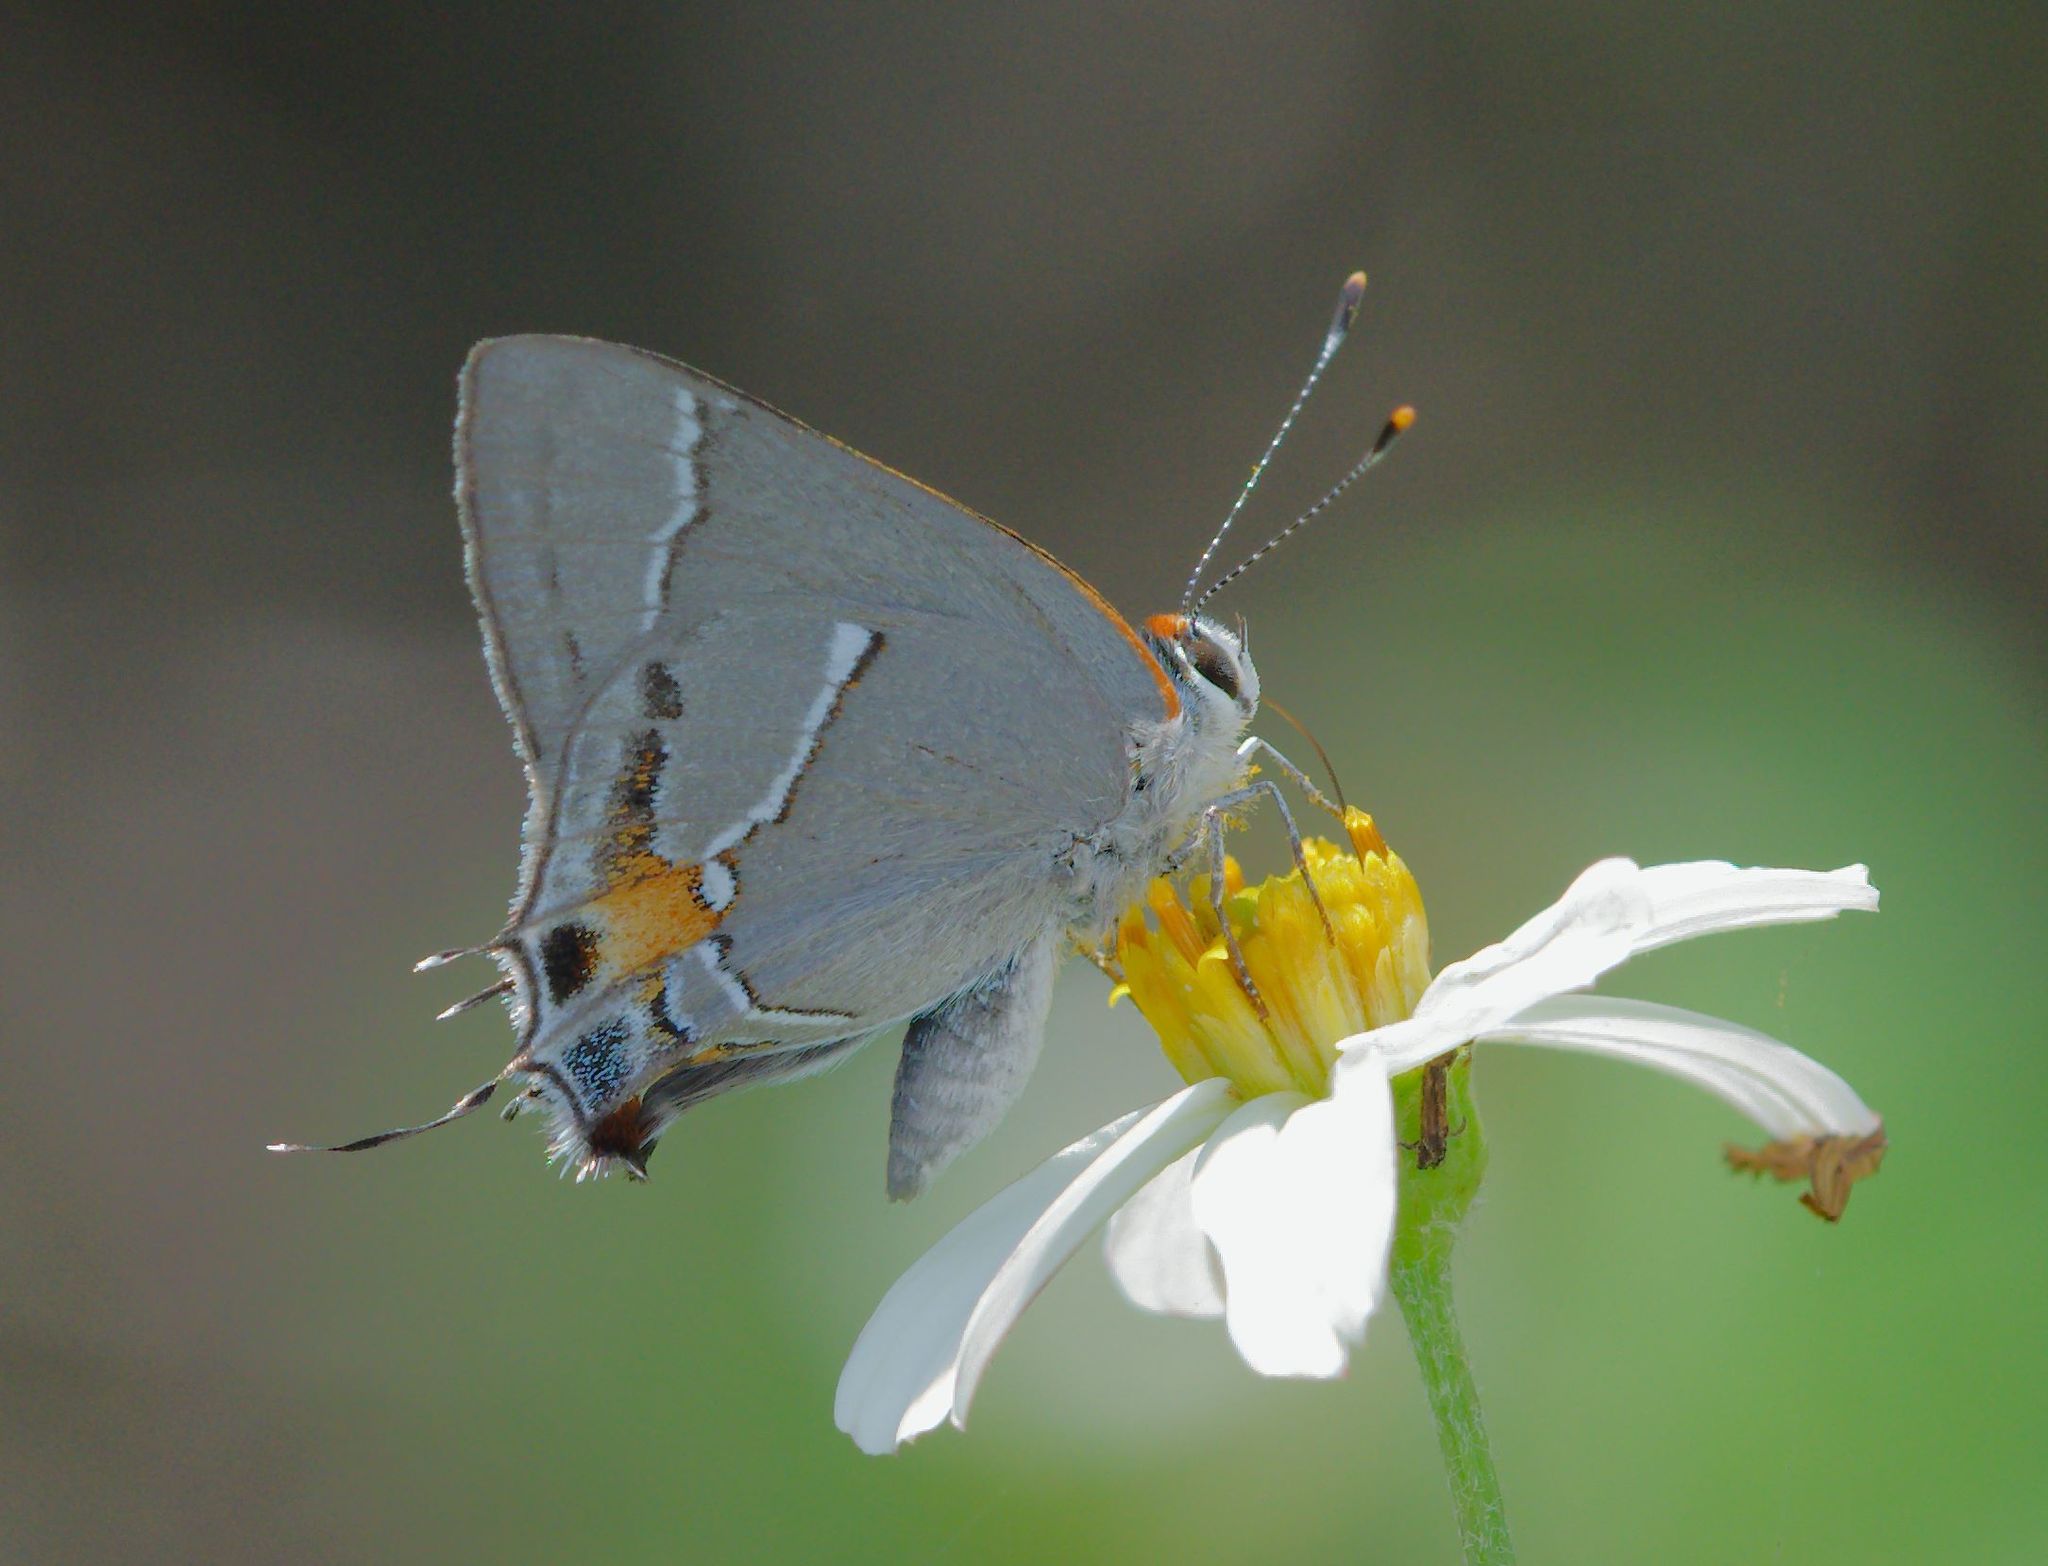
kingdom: Animalia
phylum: Arthropoda
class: Insecta
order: Lepidoptera
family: Lycaenidae
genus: Thecla
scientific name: Thecla martialis
